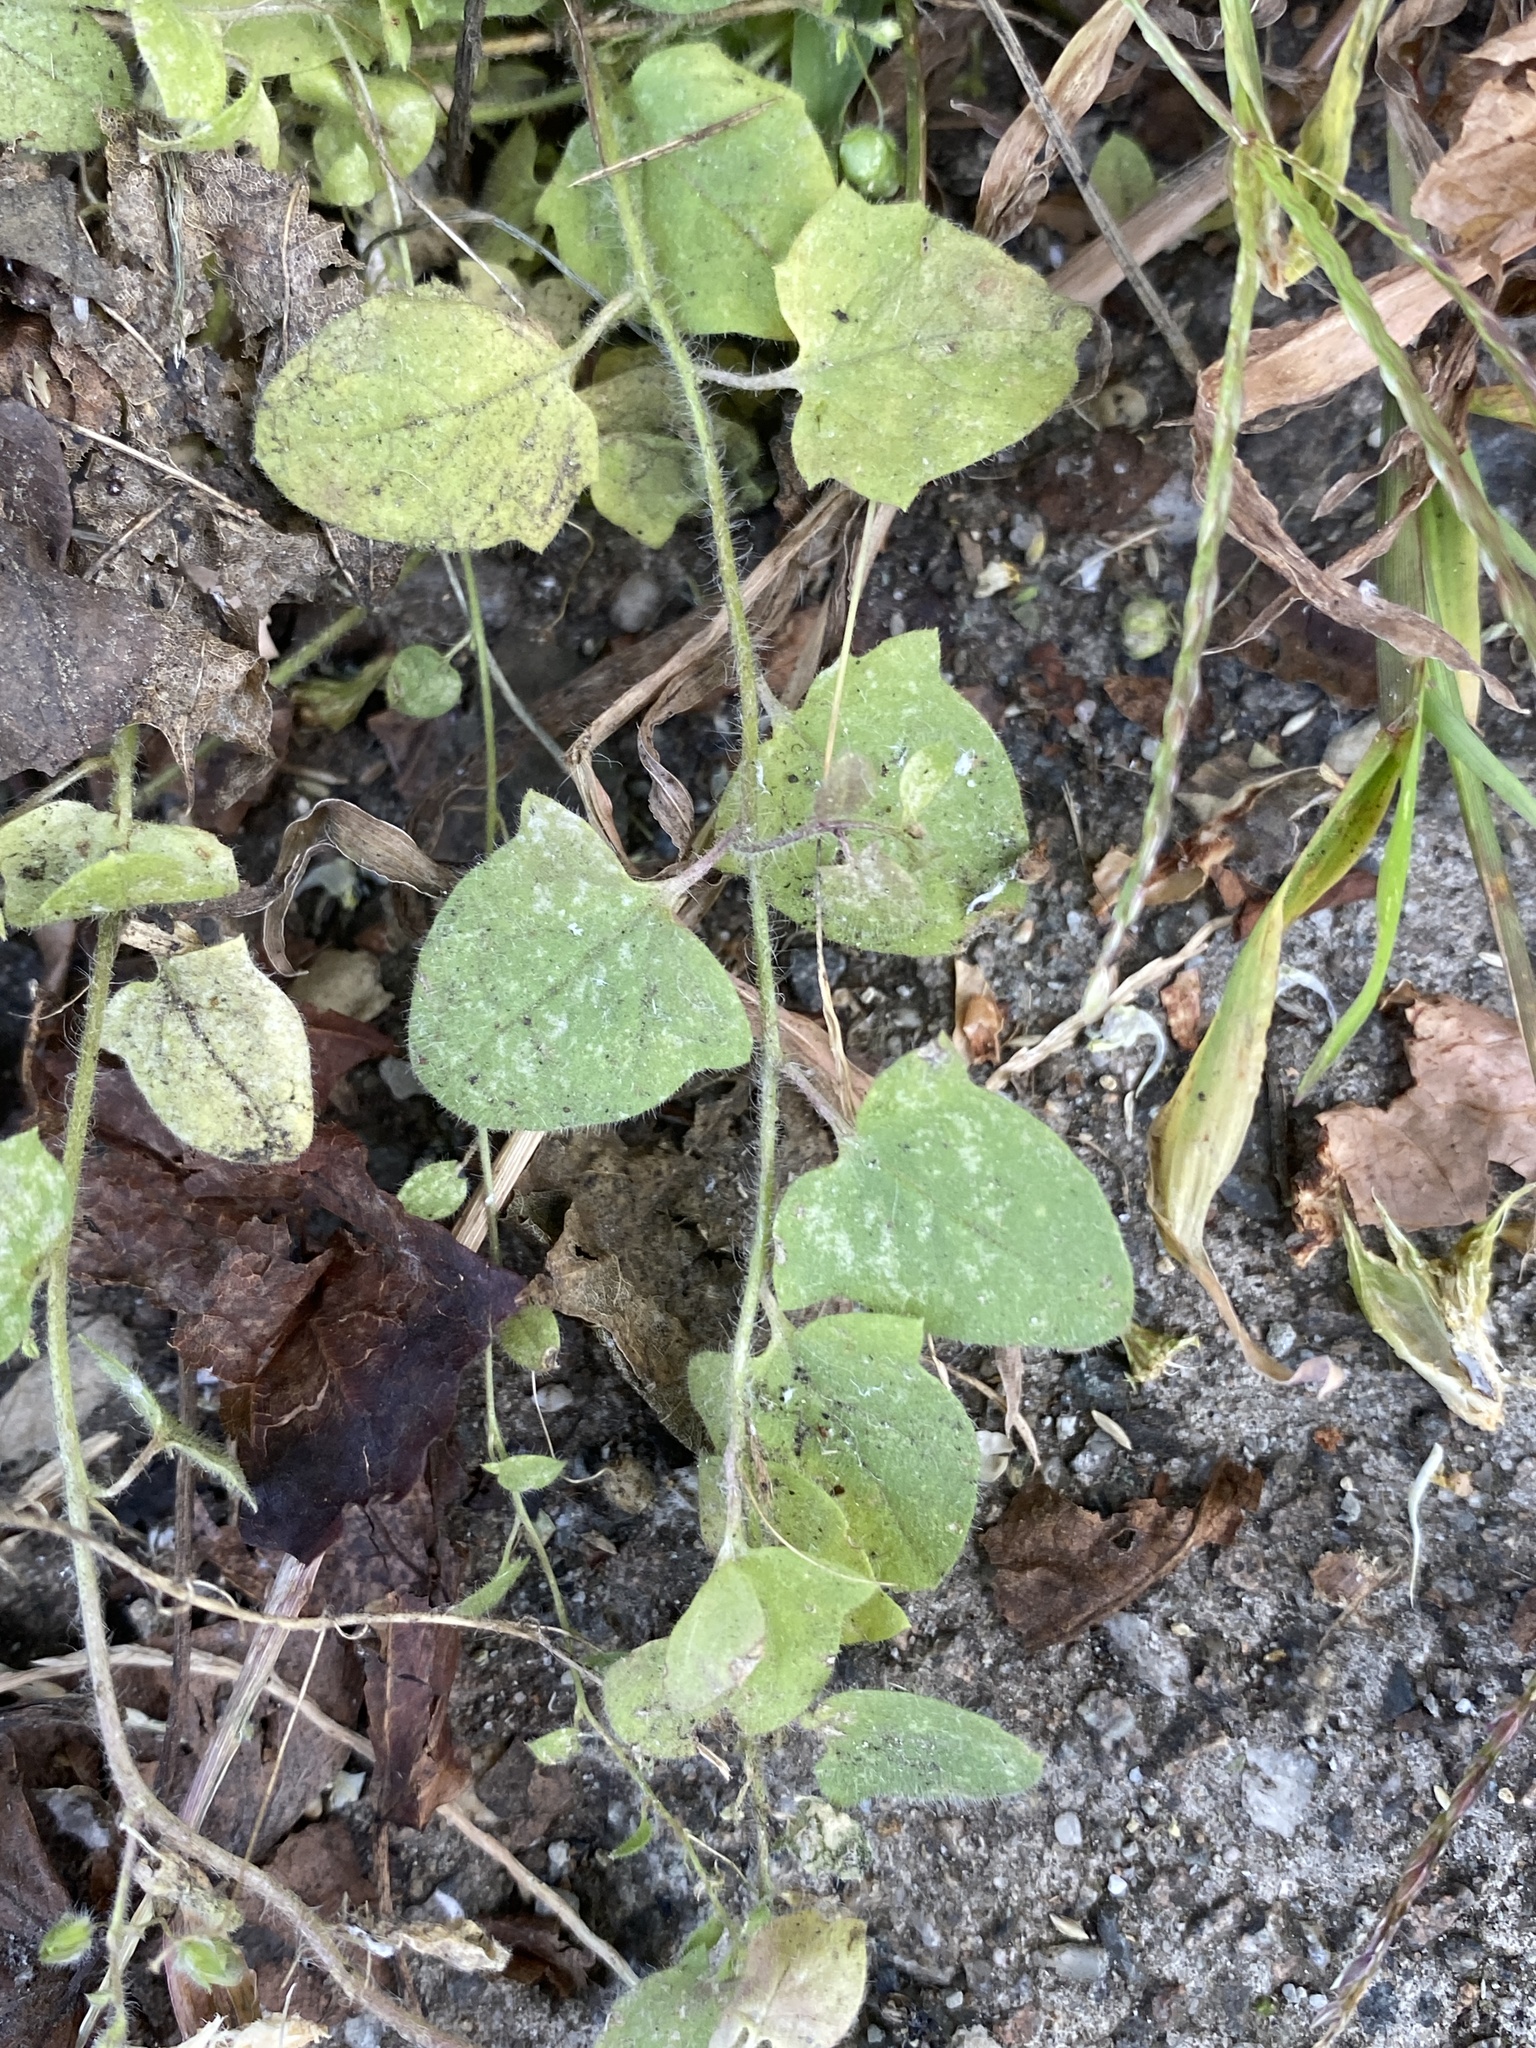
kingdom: Plantae
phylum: Tracheophyta
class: Magnoliopsida
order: Lamiales
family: Plantaginaceae
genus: Kickxia
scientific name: Kickxia elatine
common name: Sharp-leaved fluellen
